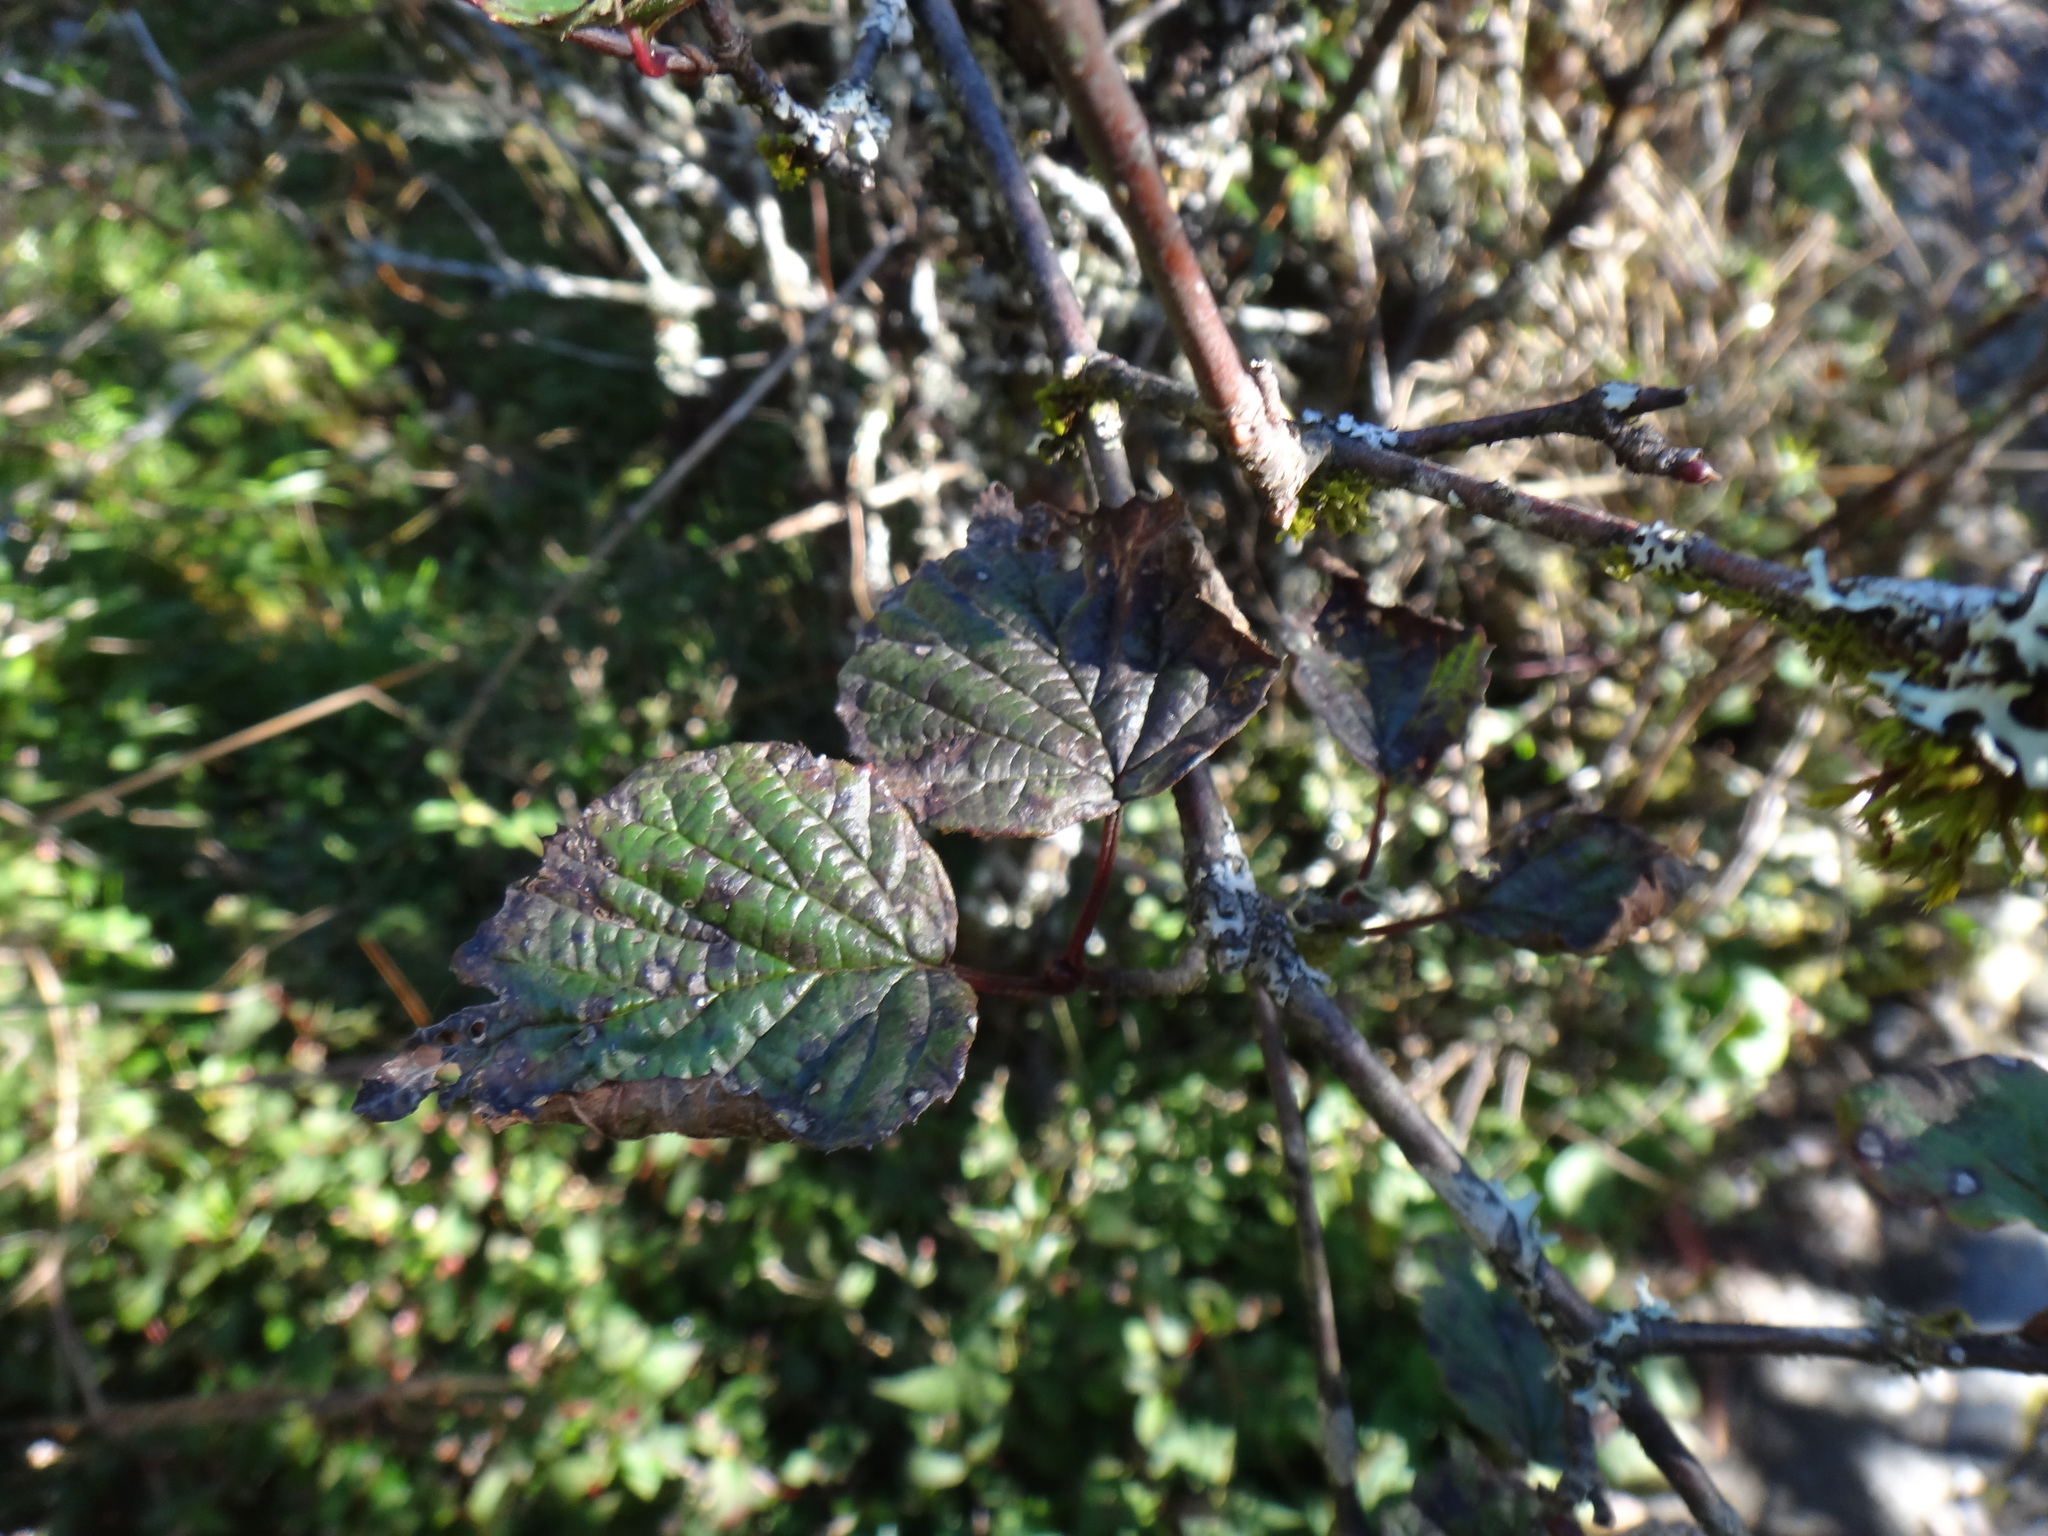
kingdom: Plantae
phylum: Tracheophyta
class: Magnoliopsida
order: Dipsacales
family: Viburnaceae
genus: Viburnum
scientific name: Viburnum betulifolium
